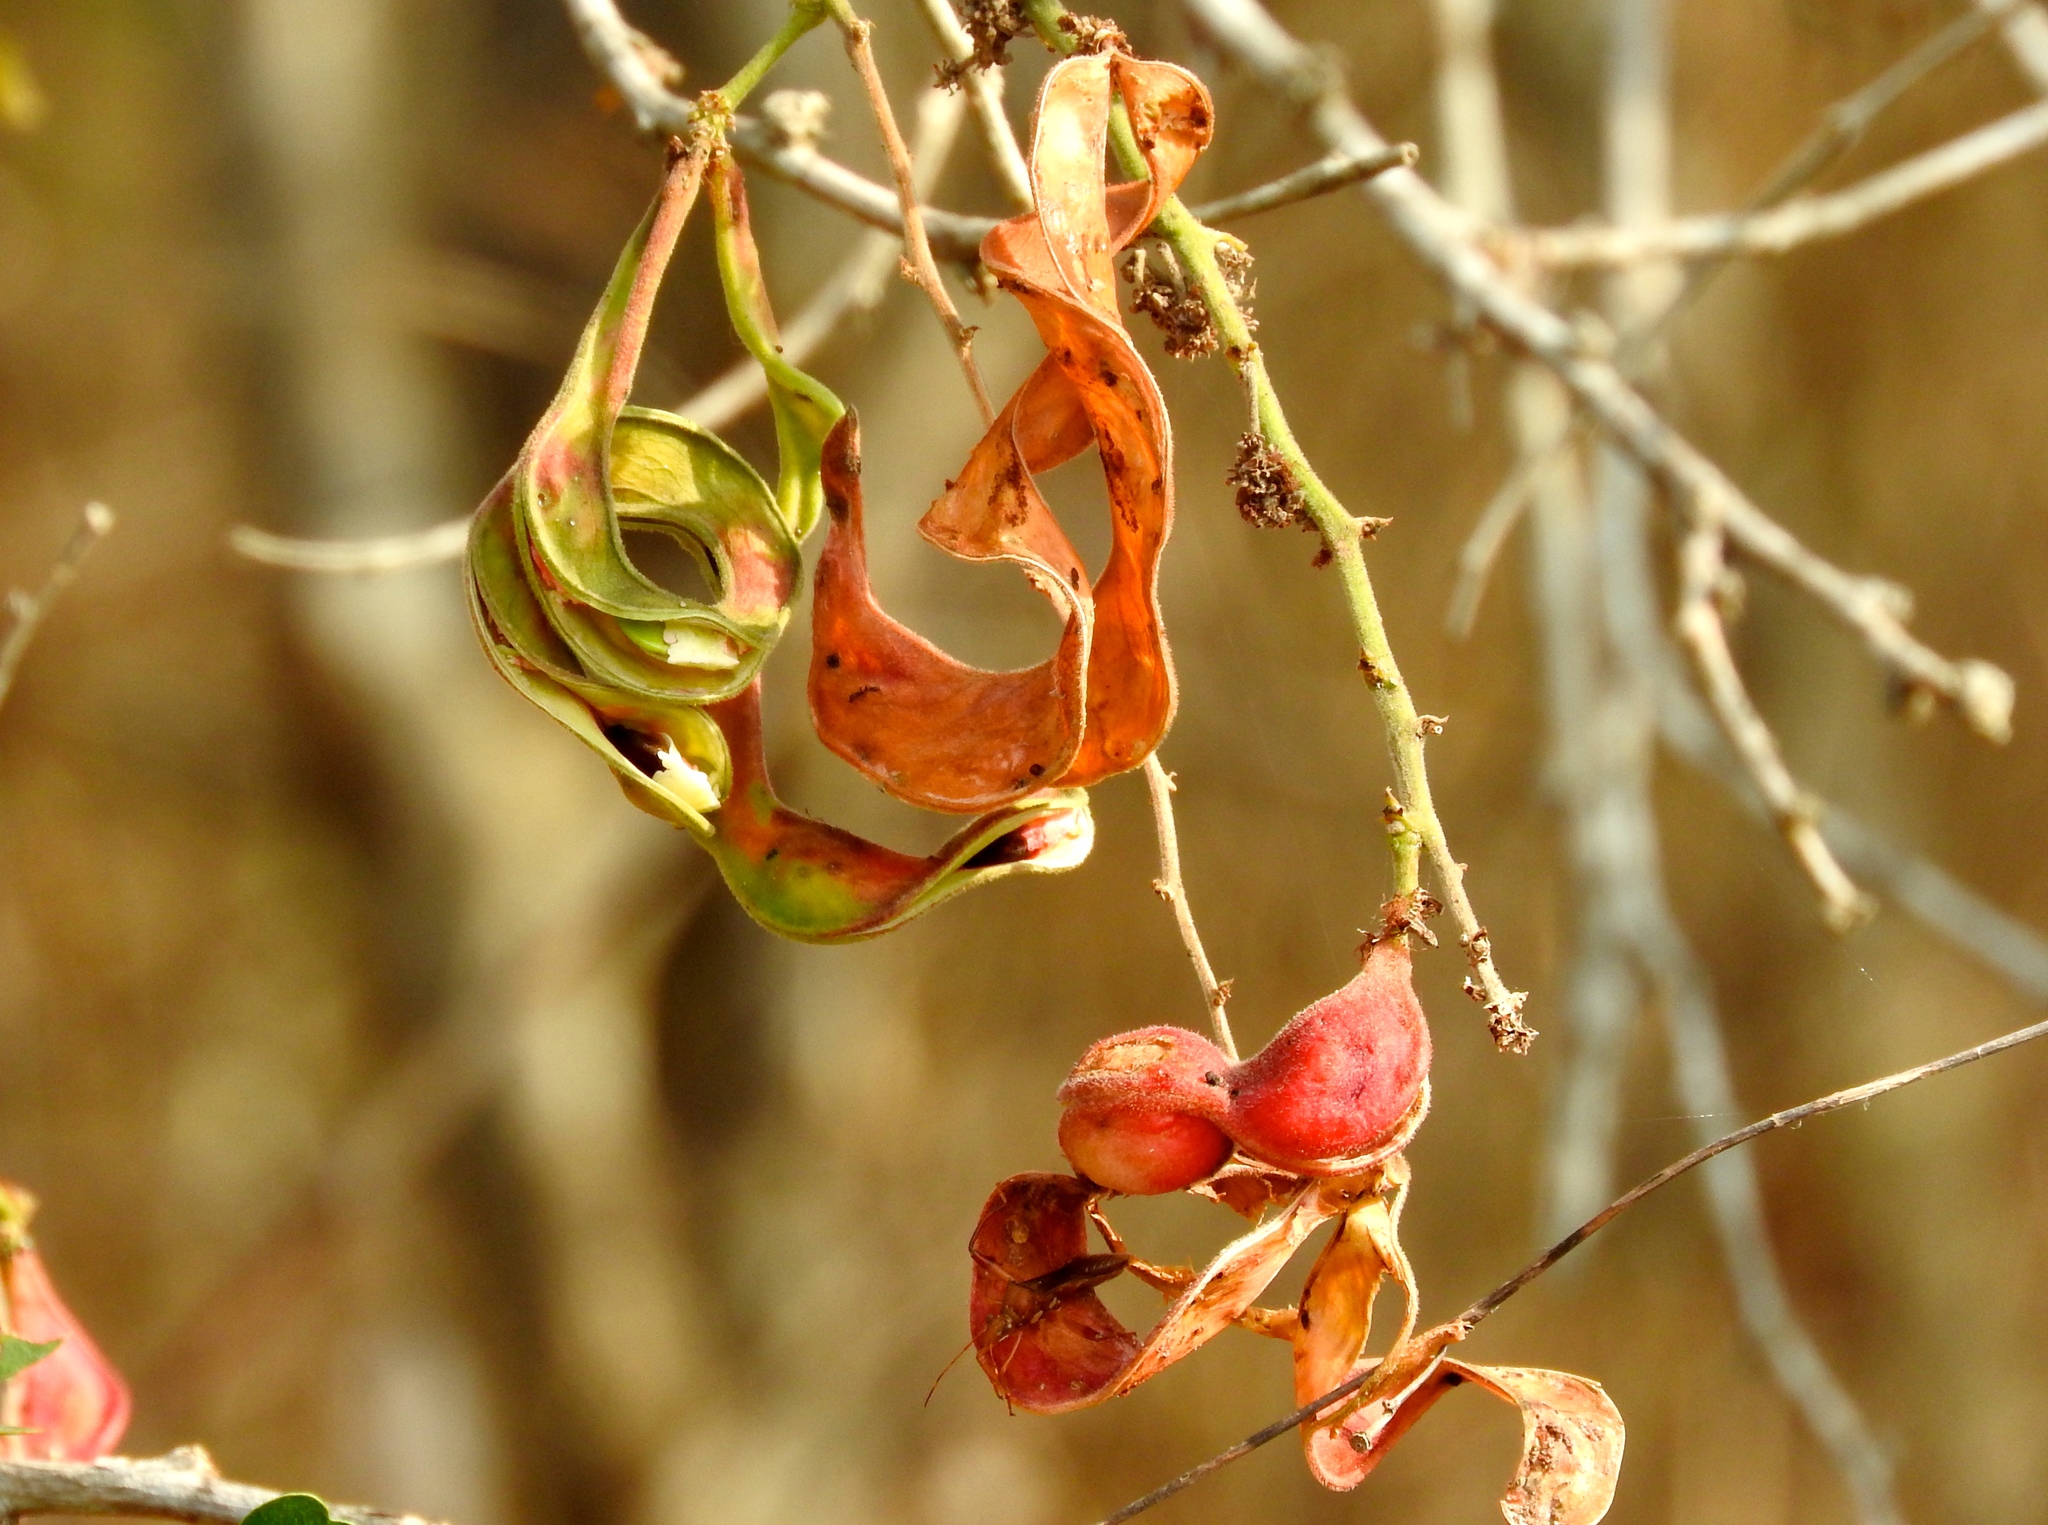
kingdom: Plantae
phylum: Tracheophyta
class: Magnoliopsida
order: Fabales
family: Fabaceae
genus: Pithecellobium
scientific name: Pithecellobium dulce
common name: Monkeypod
